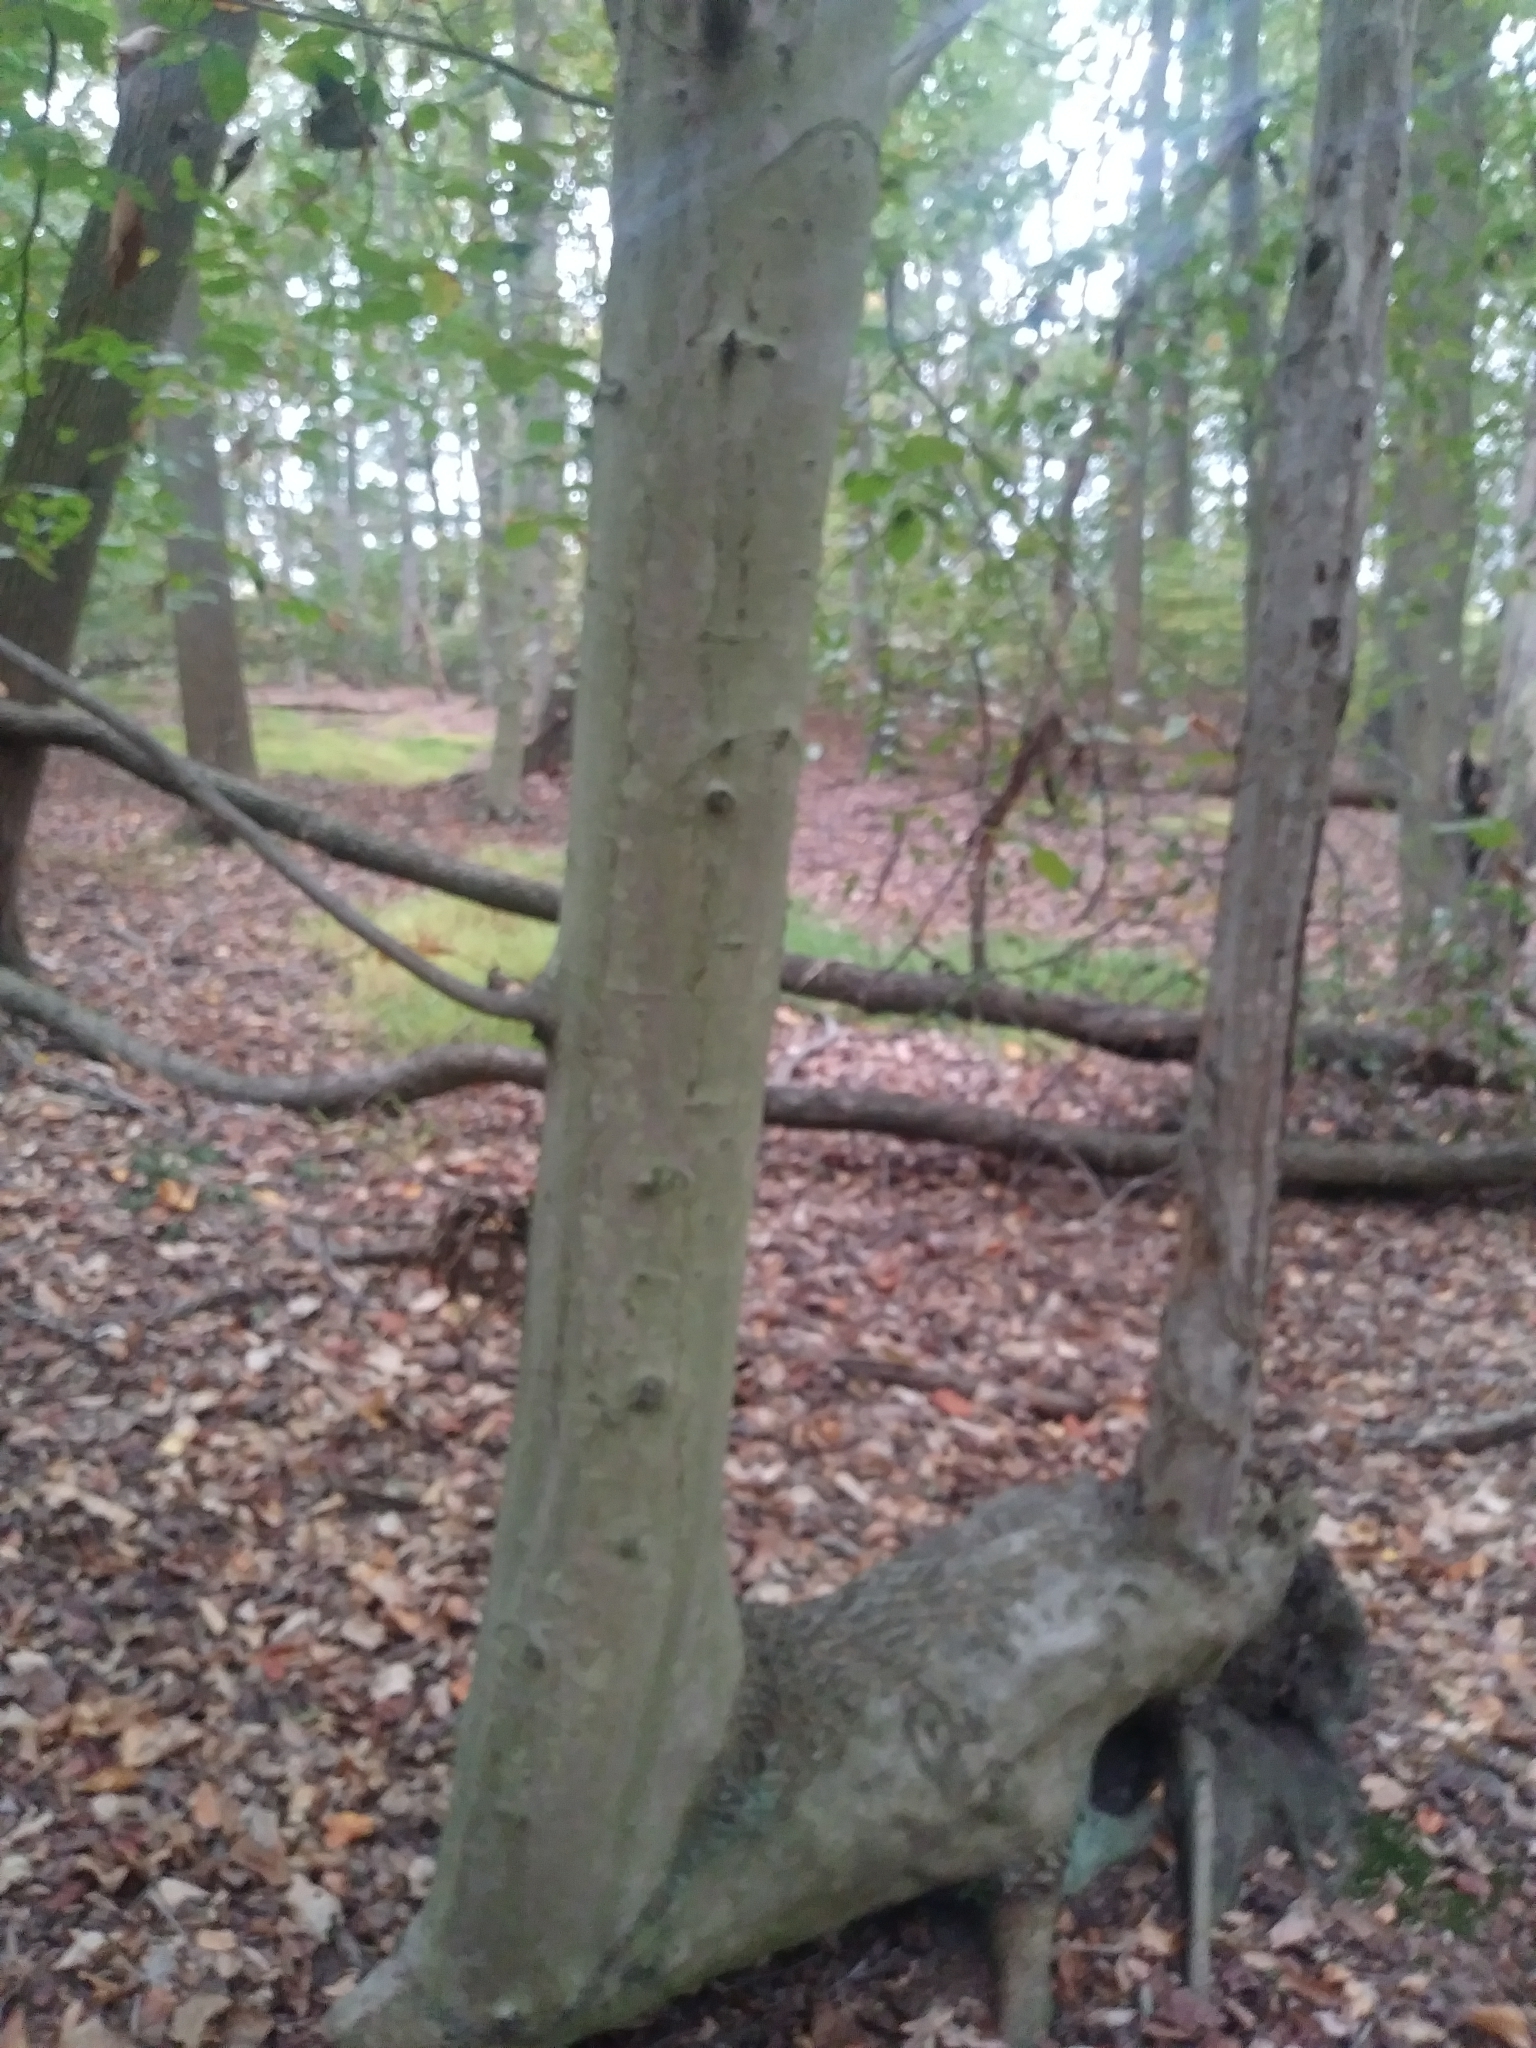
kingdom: Plantae
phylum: Tracheophyta
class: Magnoliopsida
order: Fagales
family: Fagaceae
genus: Fagus
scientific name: Fagus grandifolia
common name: American beech
